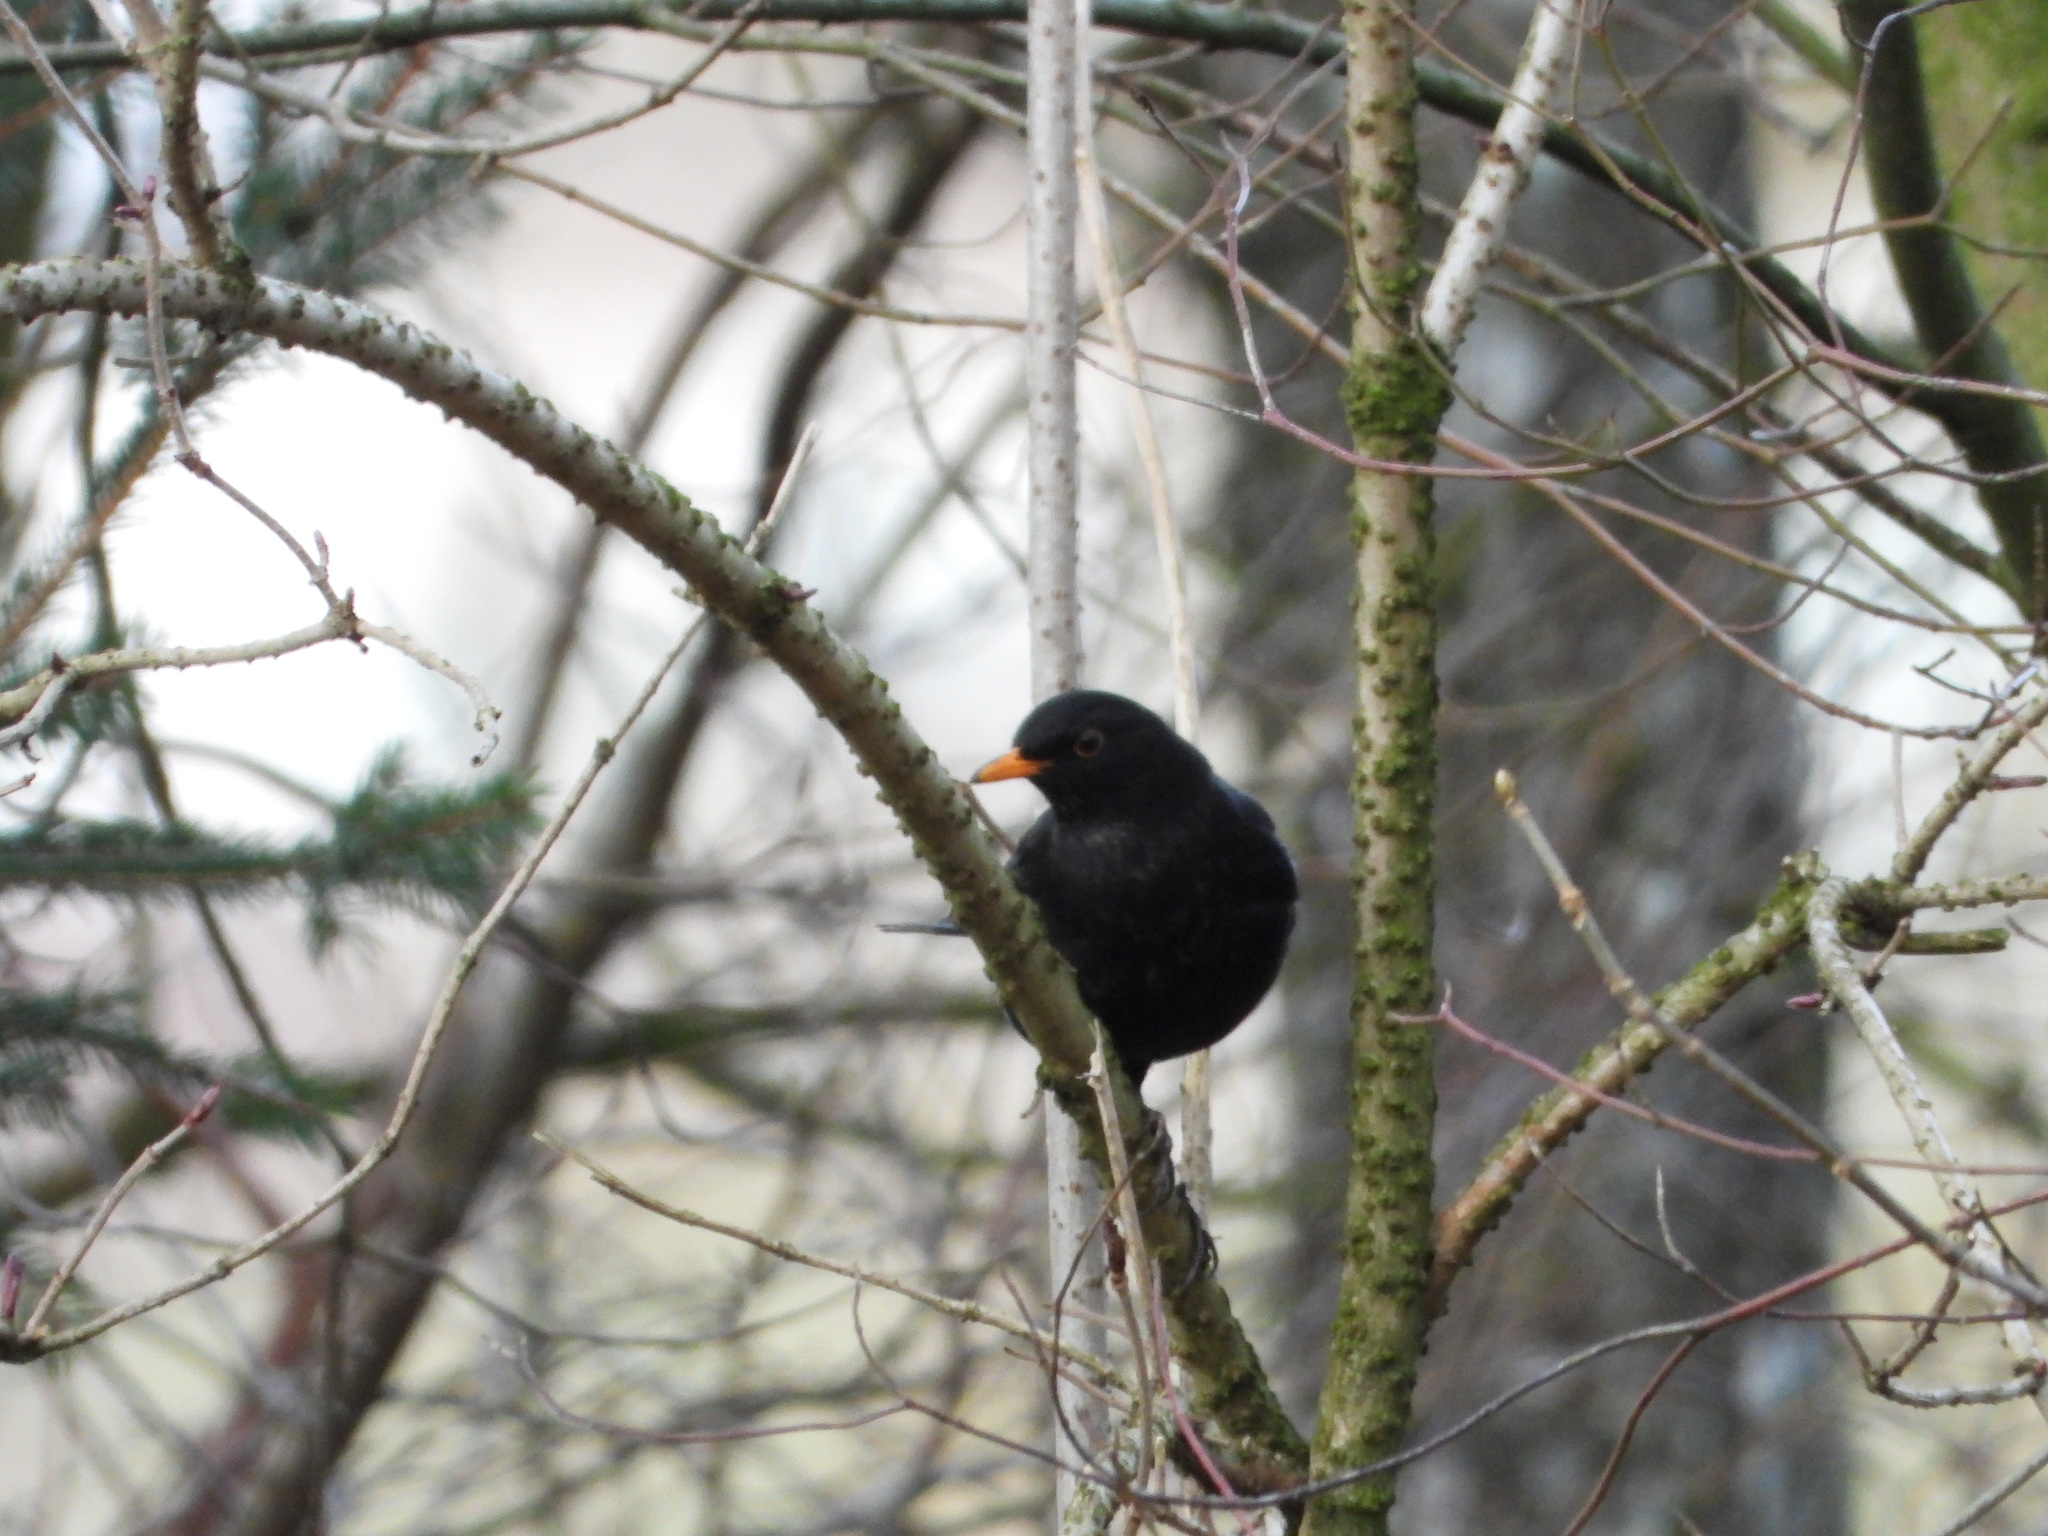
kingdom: Animalia
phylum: Chordata
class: Aves
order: Passeriformes
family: Turdidae
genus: Turdus
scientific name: Turdus merula
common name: Common blackbird
